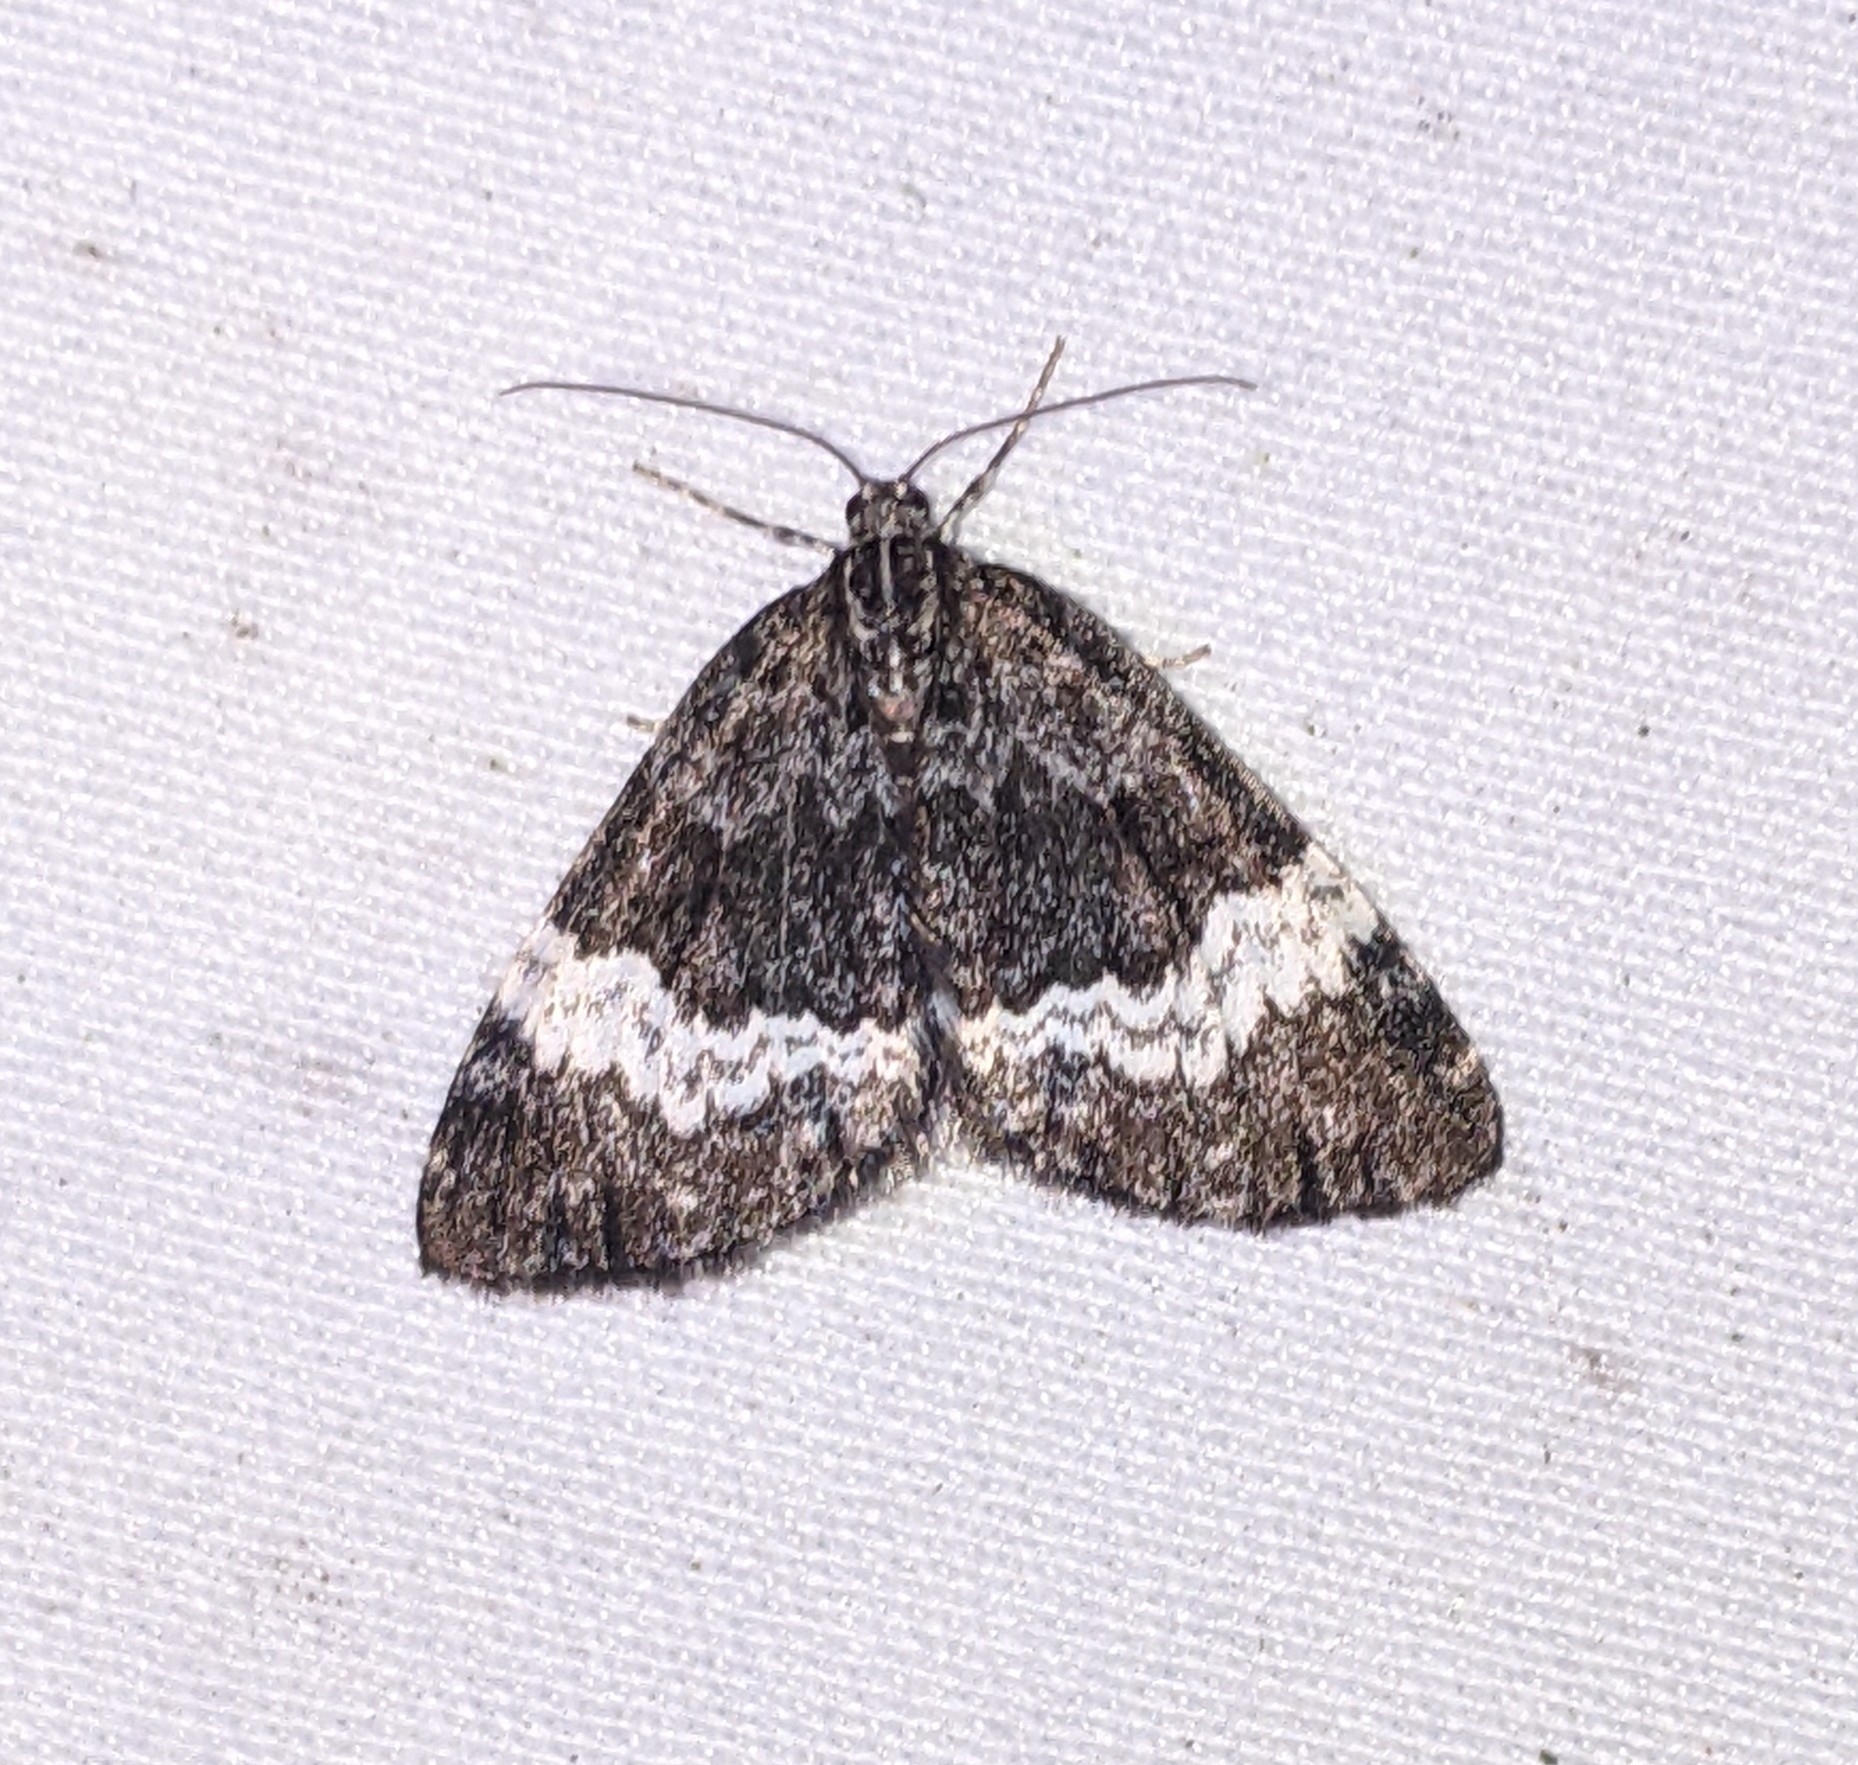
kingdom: Animalia
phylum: Arthropoda
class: Insecta
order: Lepidoptera
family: Geometridae
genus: Spargania
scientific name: Spargania luctuata
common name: White-banded carpet
